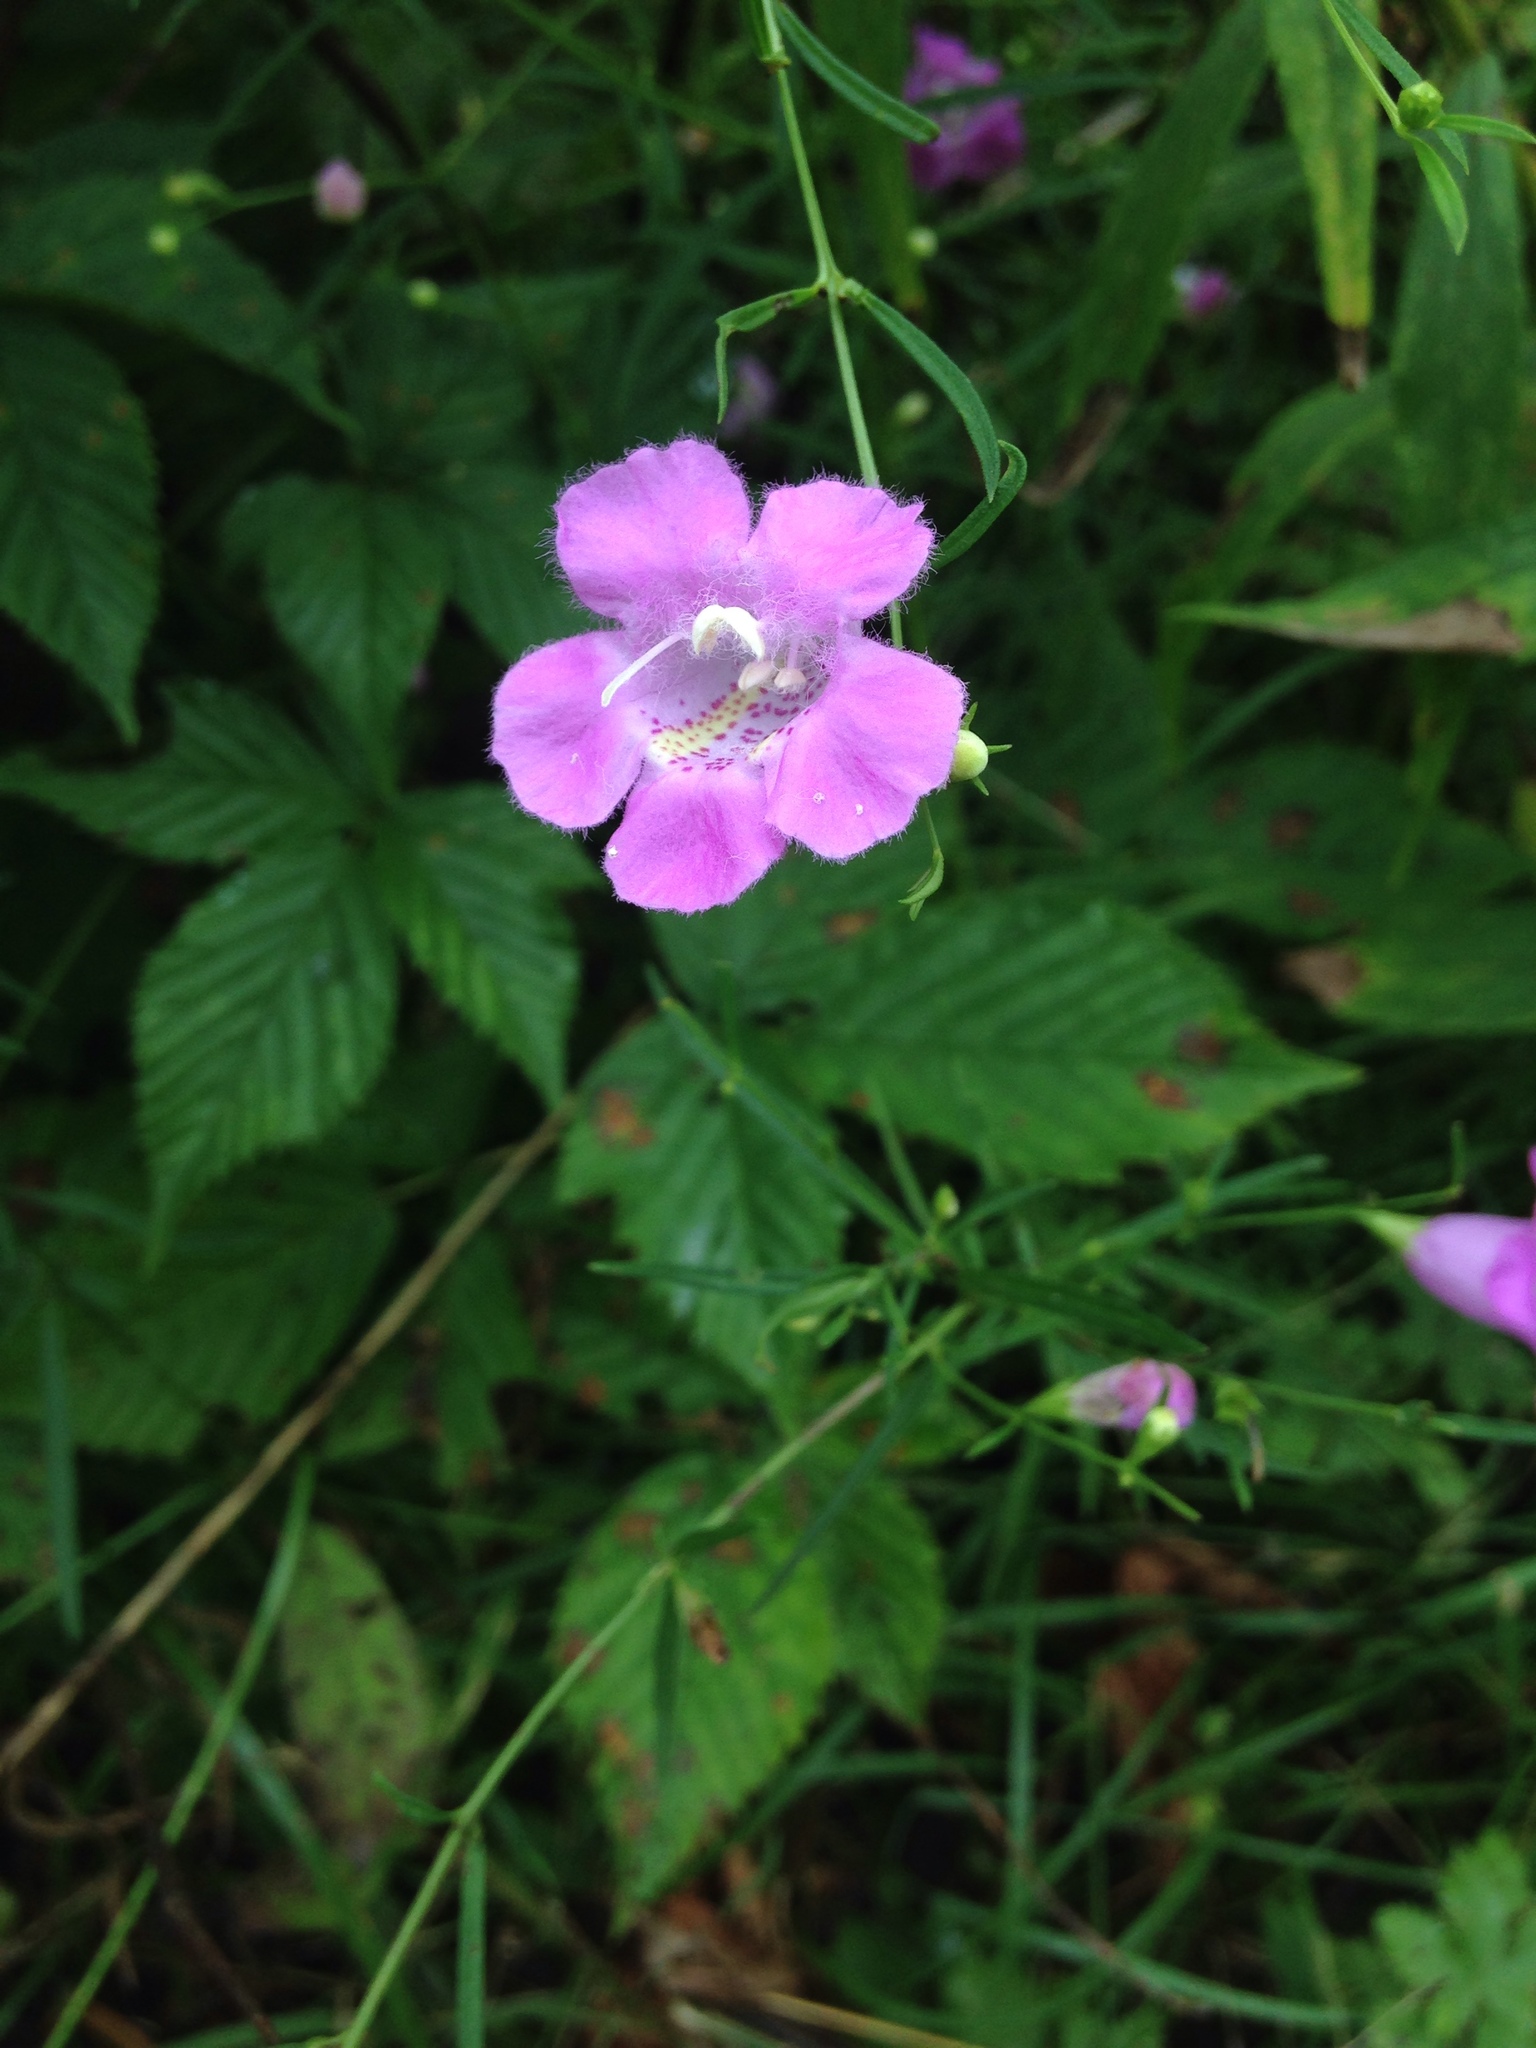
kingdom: Plantae
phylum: Tracheophyta
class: Magnoliopsida
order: Lamiales
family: Orobanchaceae
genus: Agalinis
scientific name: Agalinis purpurea
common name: Purple false foxglove
